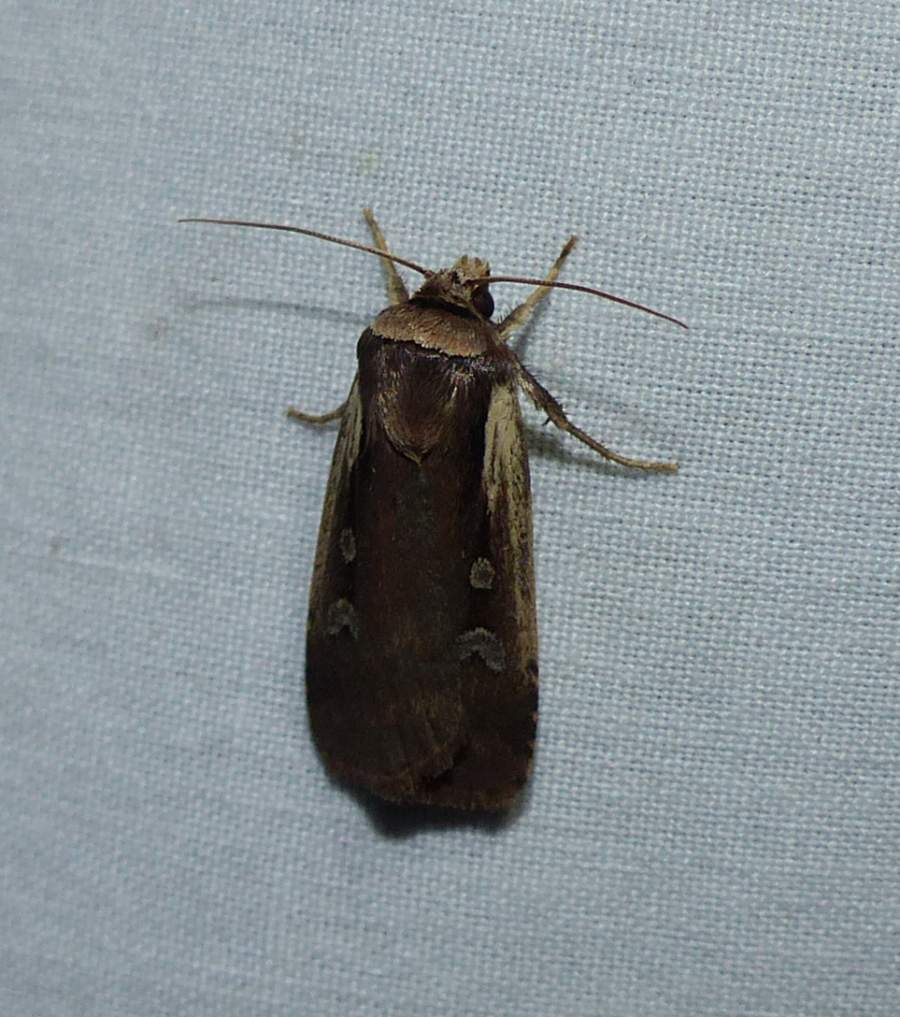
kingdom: Animalia
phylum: Arthropoda
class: Insecta
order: Lepidoptera
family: Noctuidae
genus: Ochropleura
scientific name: Ochropleura implecta
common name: Flame-shouldered dart
